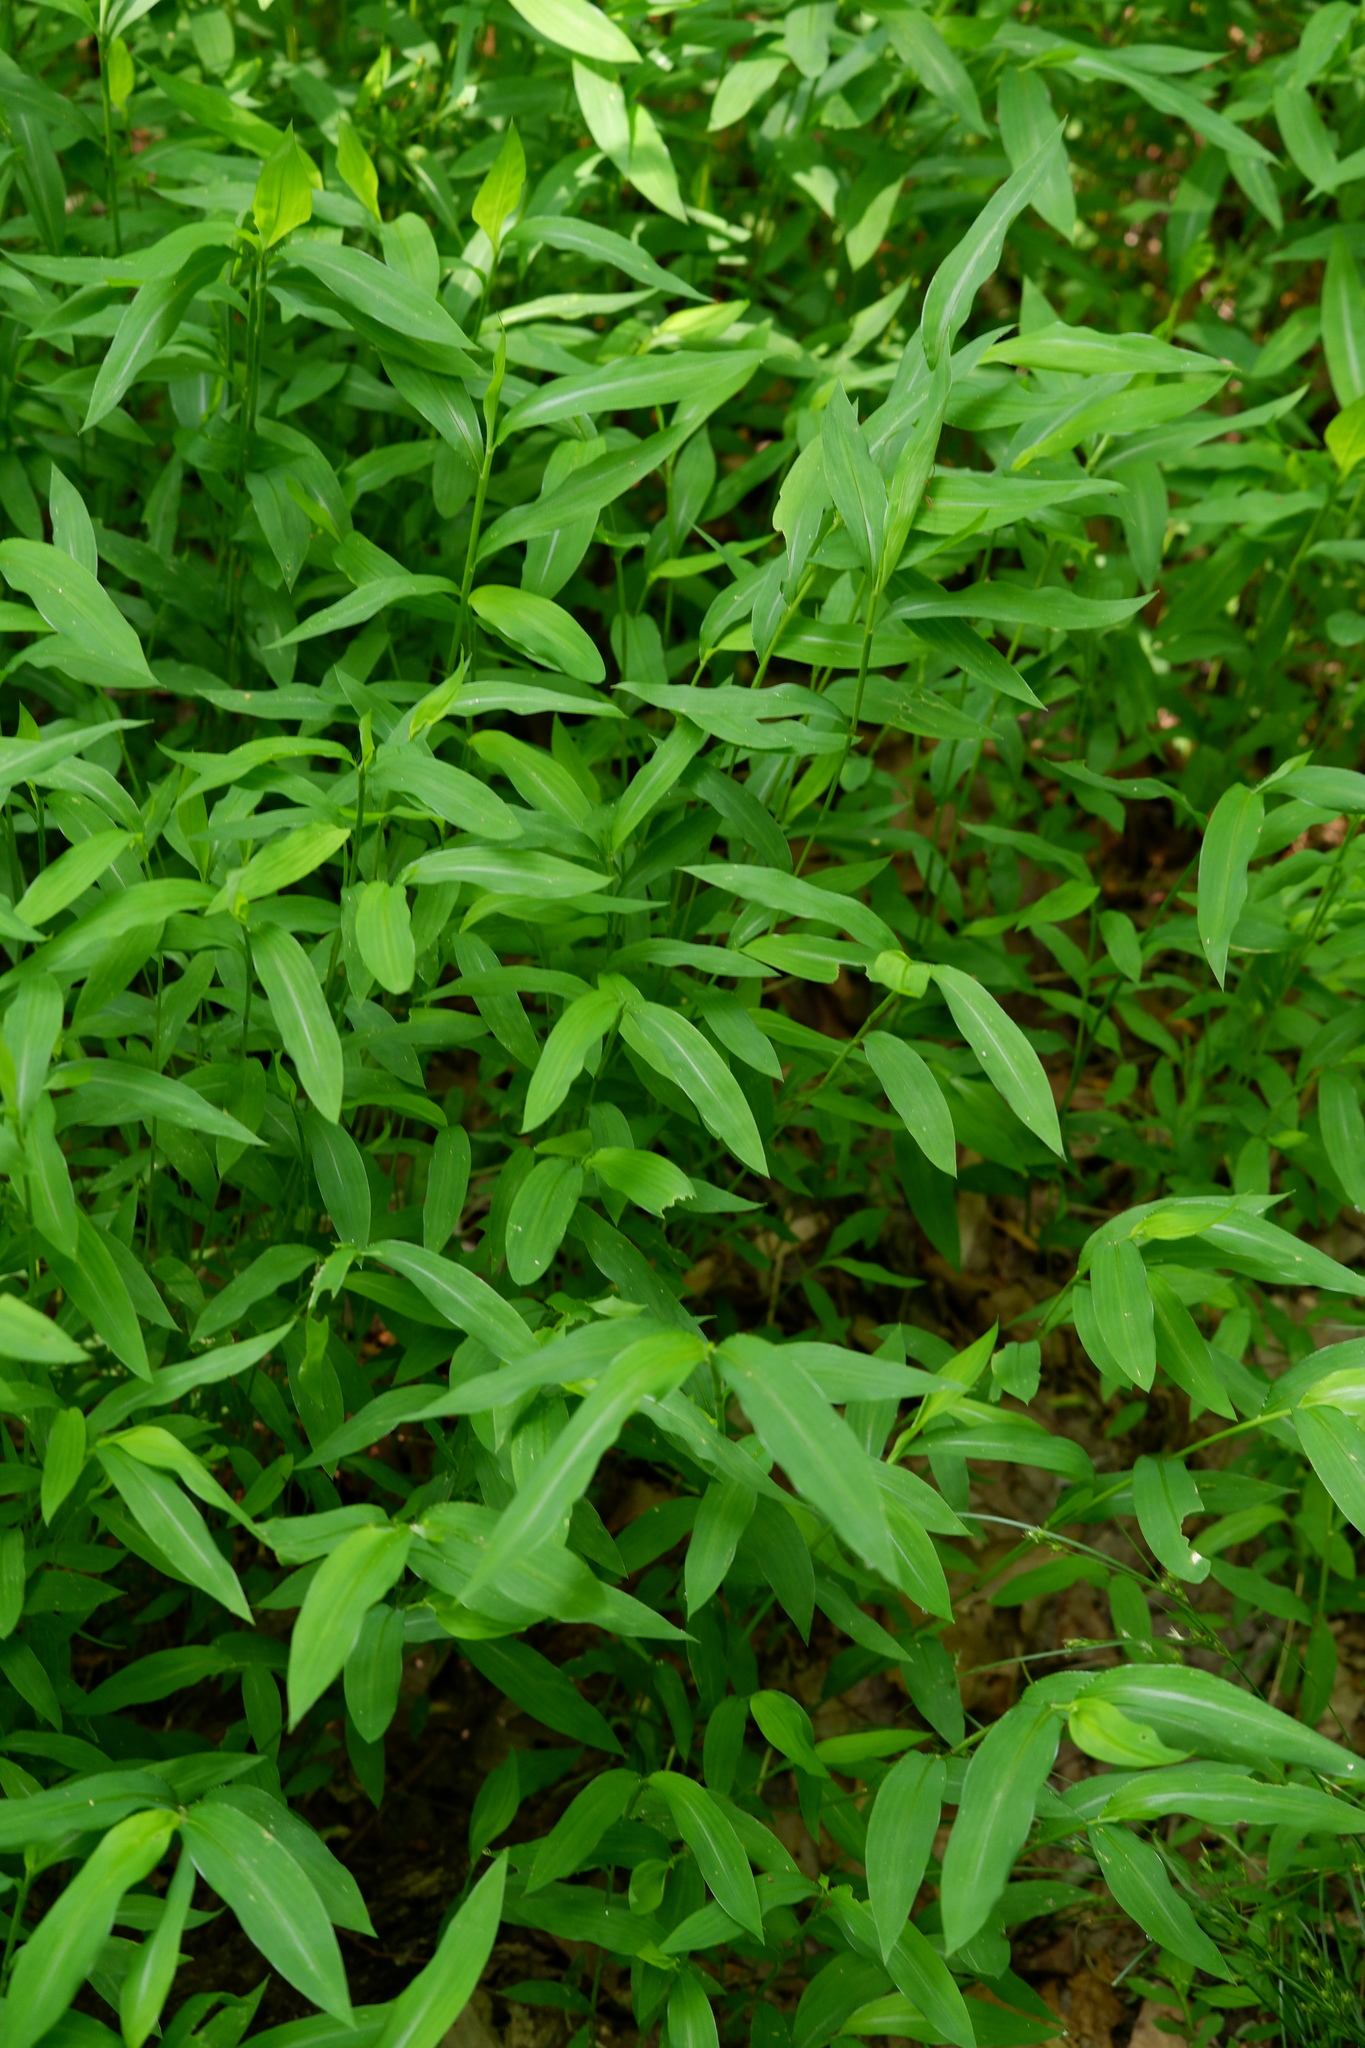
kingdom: Plantae
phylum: Tracheophyta
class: Liliopsida
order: Poales
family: Poaceae
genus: Microstegium
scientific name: Microstegium vimineum
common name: Japanese stiltgrass
